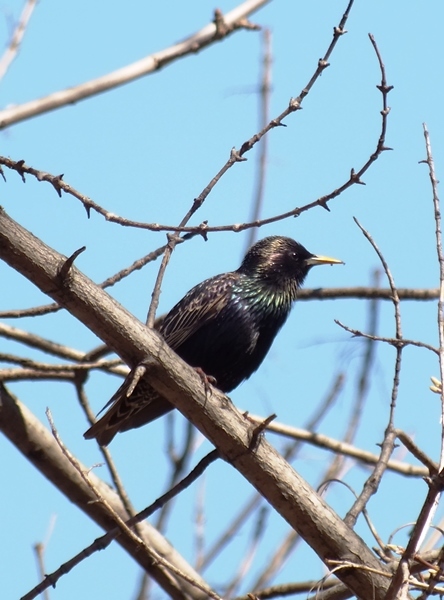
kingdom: Animalia
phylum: Chordata
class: Aves
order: Passeriformes
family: Sturnidae
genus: Sturnus
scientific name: Sturnus vulgaris
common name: Common starling
